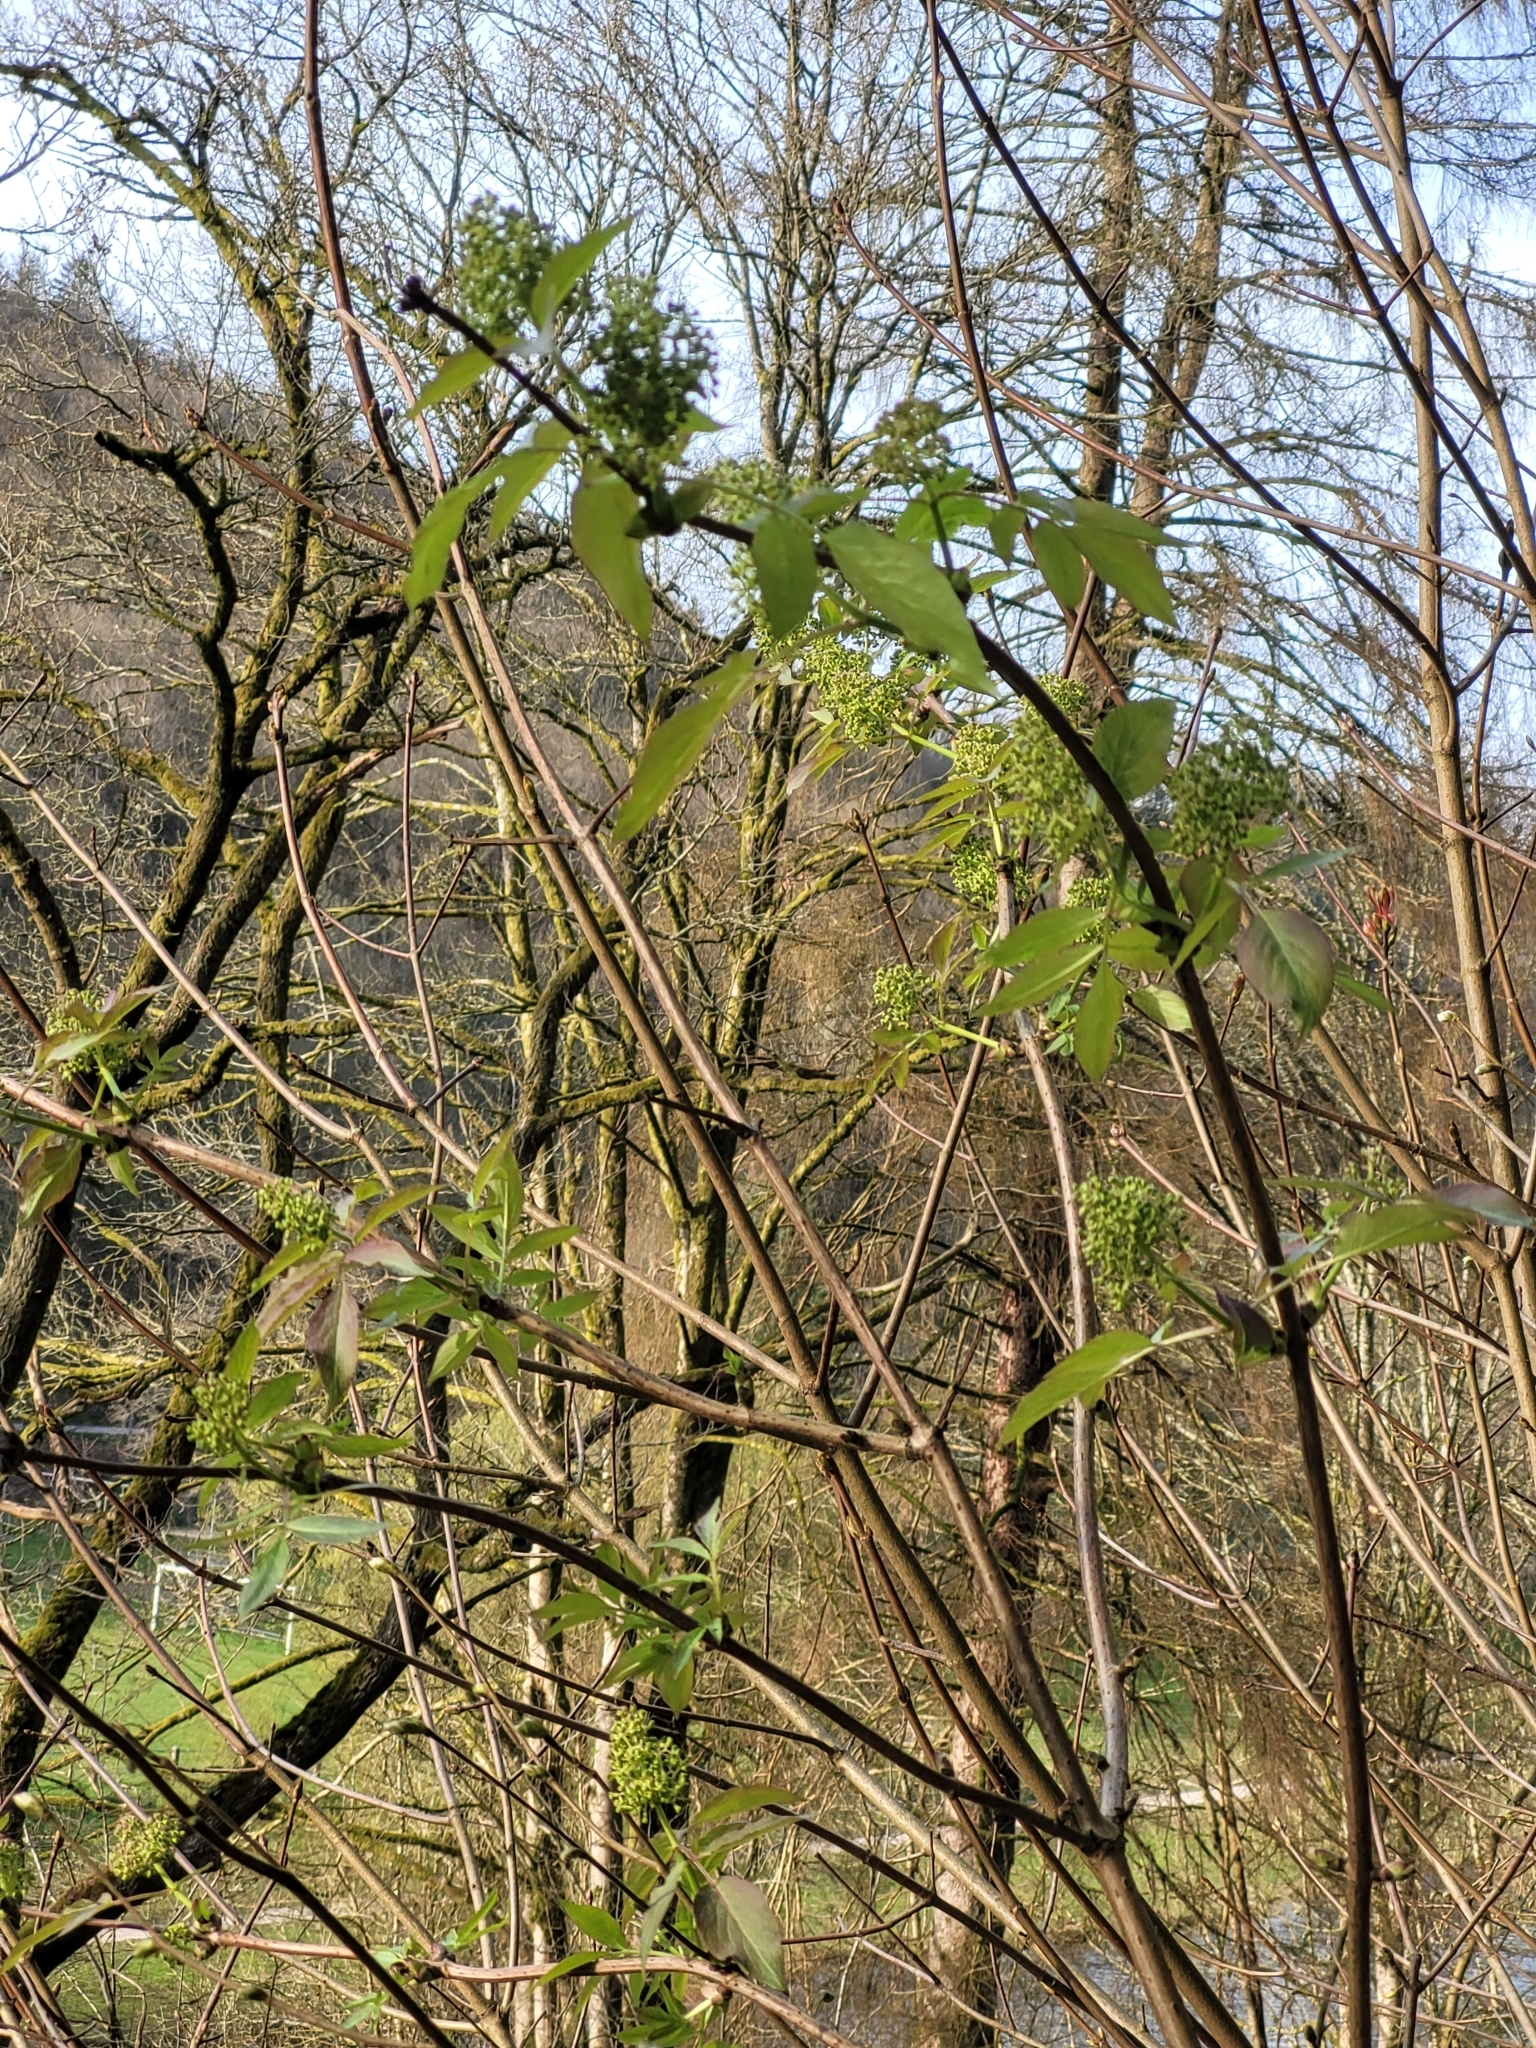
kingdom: Plantae
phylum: Tracheophyta
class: Magnoliopsida
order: Dipsacales
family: Viburnaceae
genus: Sambucus
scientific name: Sambucus racemosa
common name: Red-berried elder
